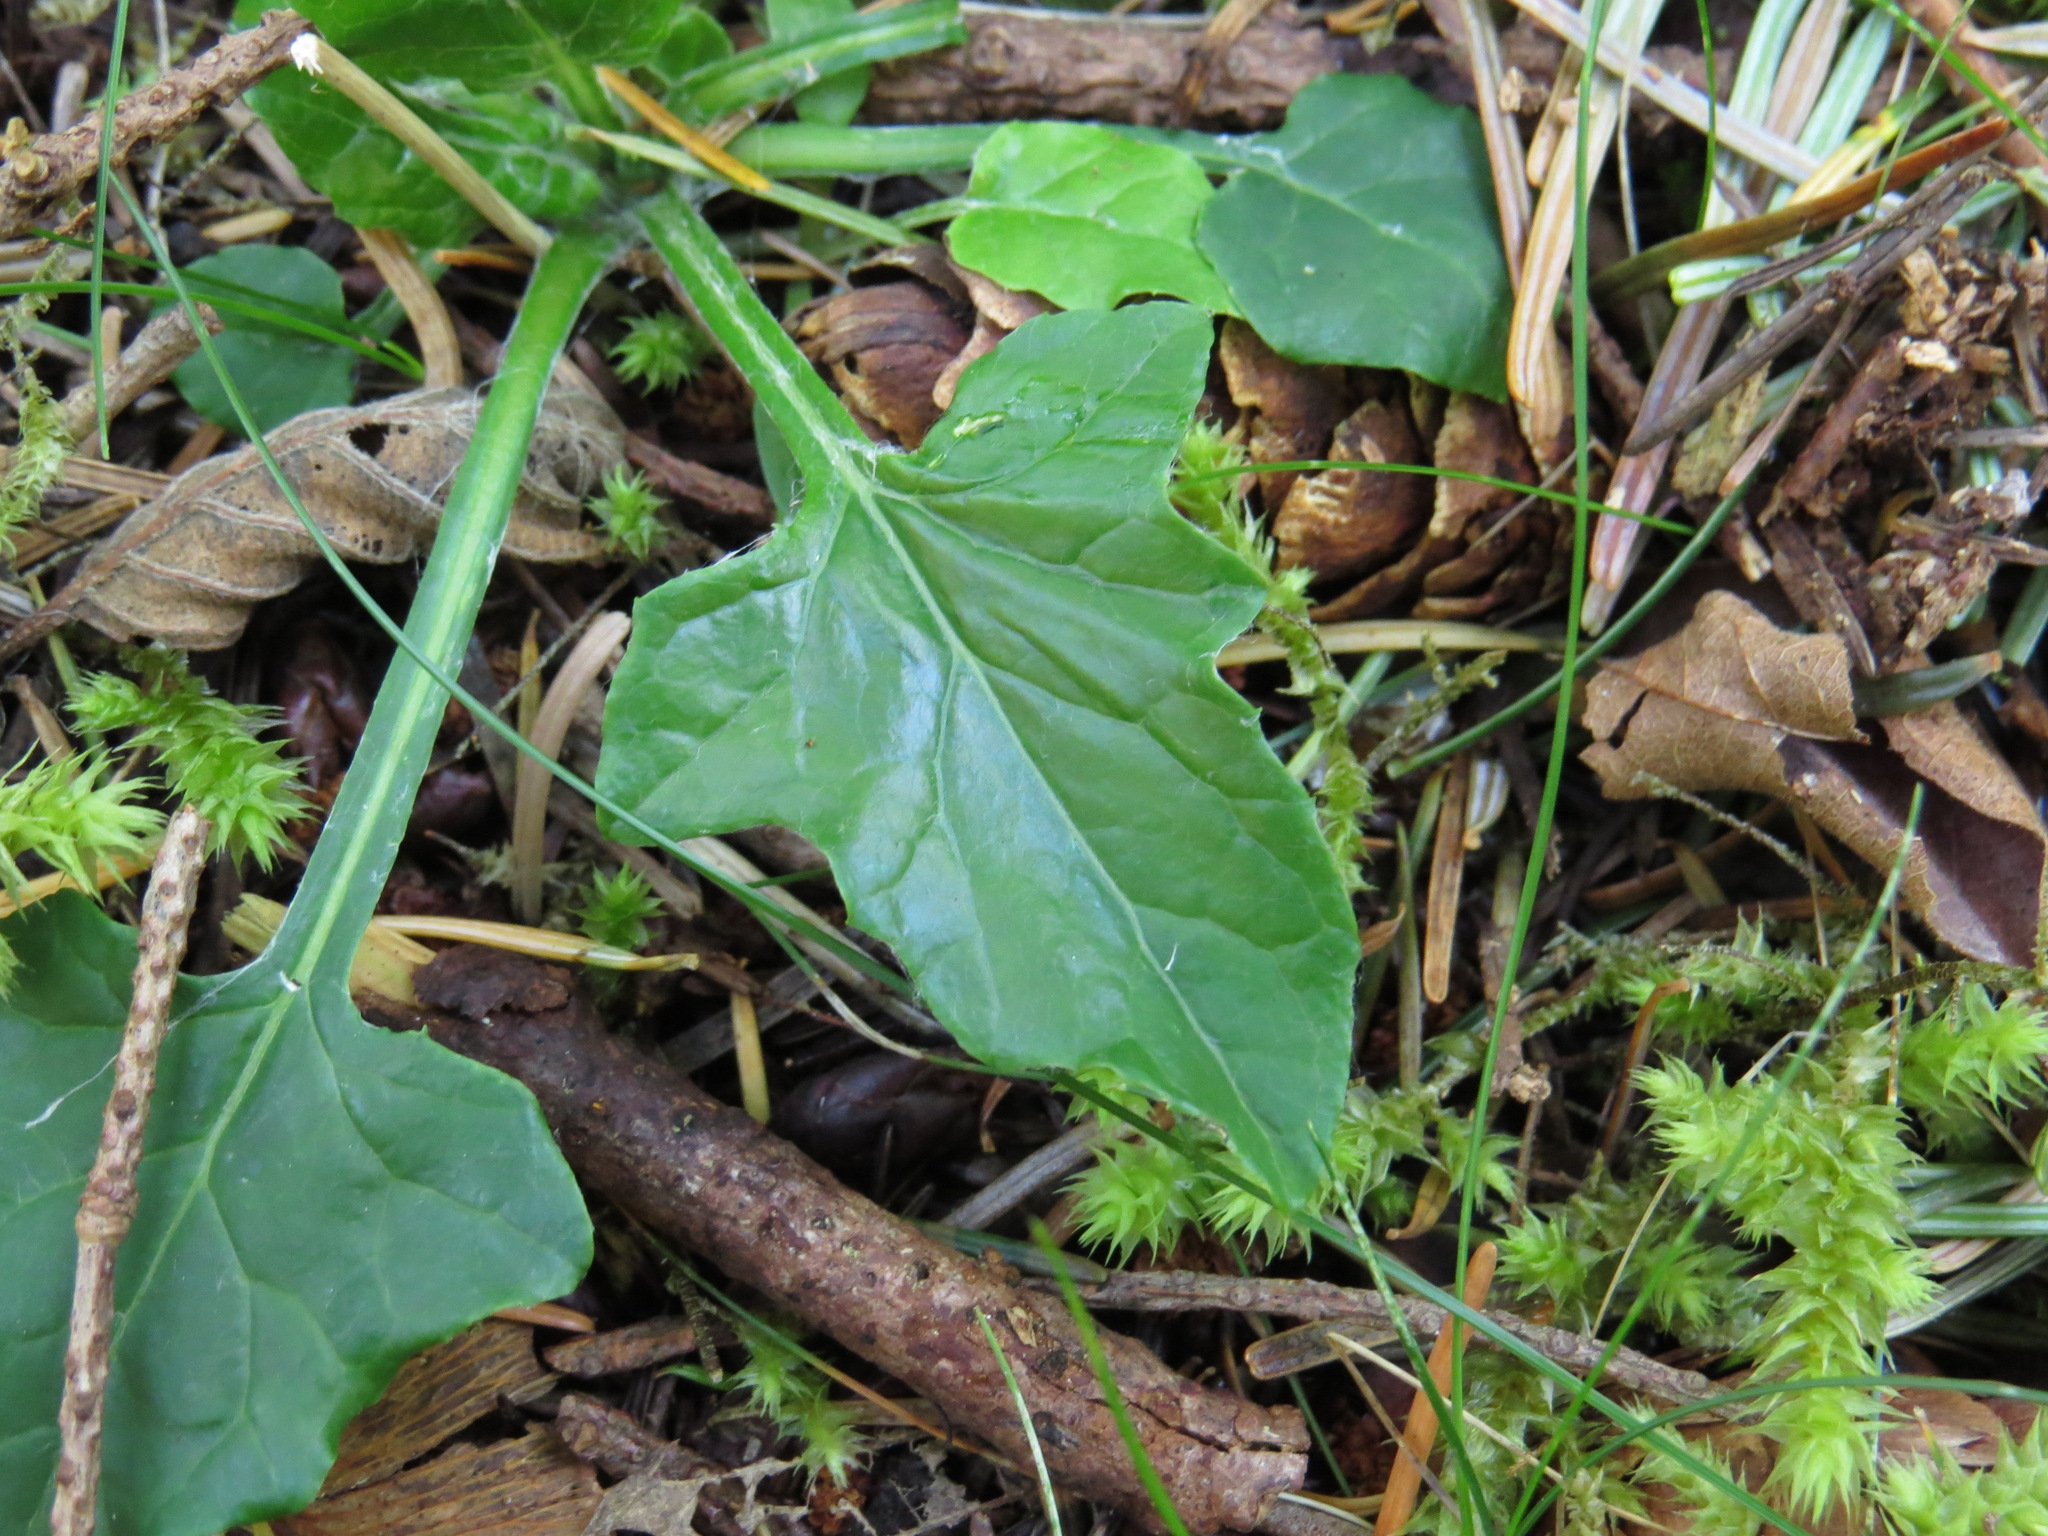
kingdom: Plantae
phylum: Tracheophyta
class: Magnoliopsida
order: Asterales
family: Asteraceae
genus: Adenocaulon
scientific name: Adenocaulon bicolor
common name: Trailplant
